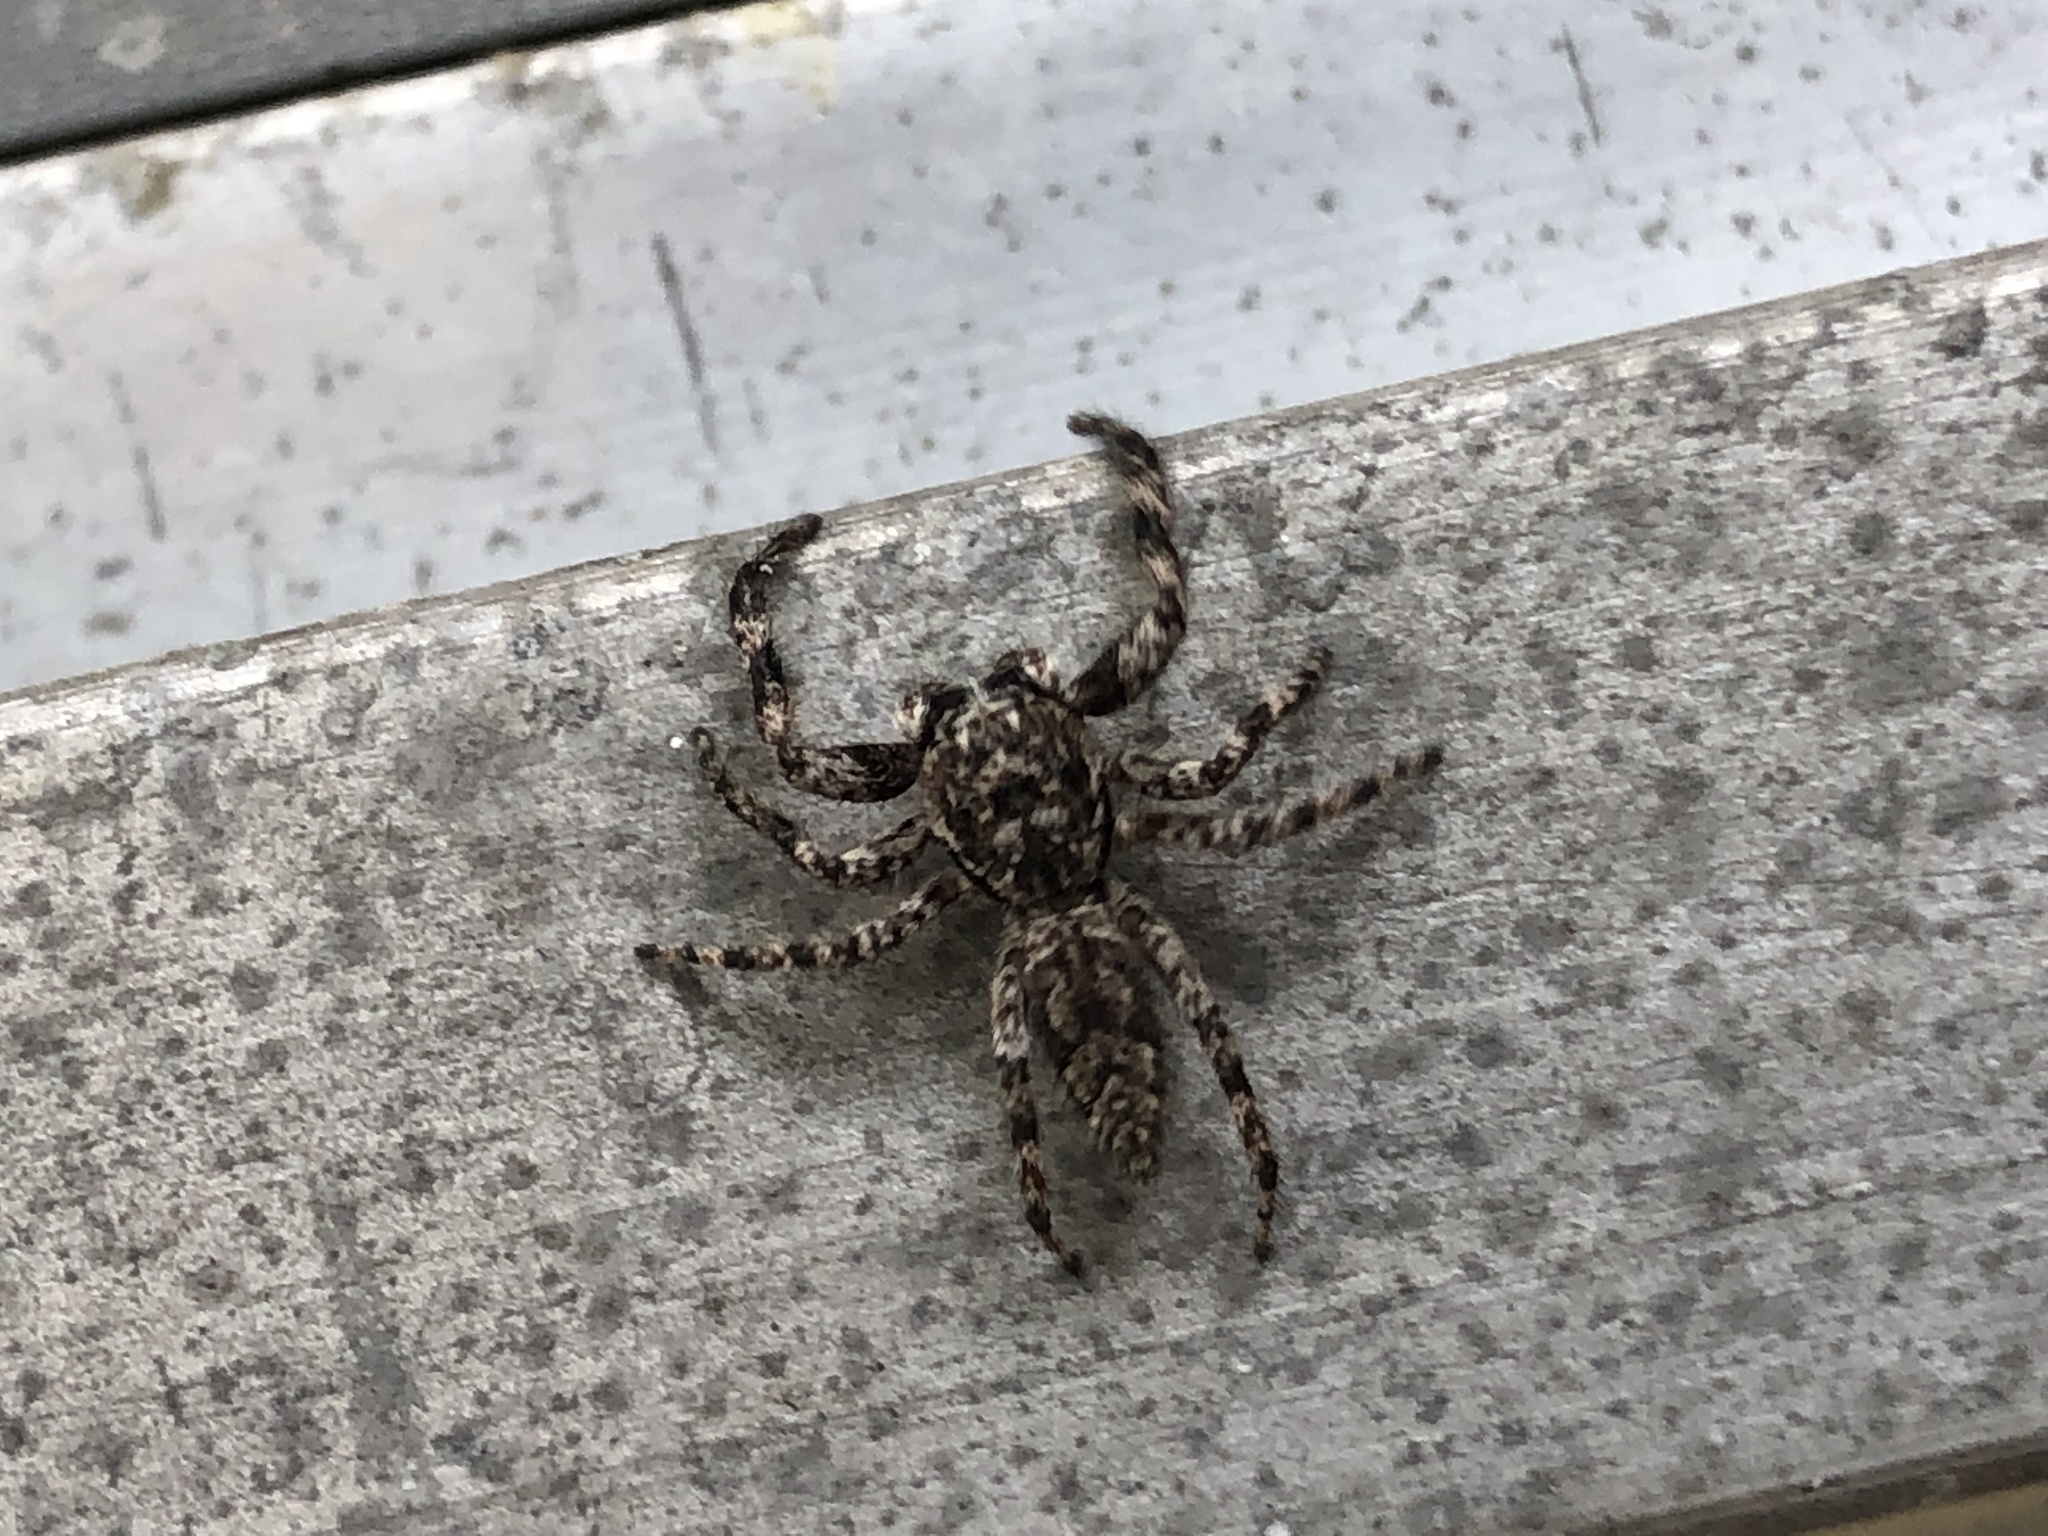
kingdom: Animalia
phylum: Arthropoda
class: Arachnida
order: Araneae
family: Salticidae
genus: Platycryptus
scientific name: Platycryptus undatus
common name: Tan jumping spider
